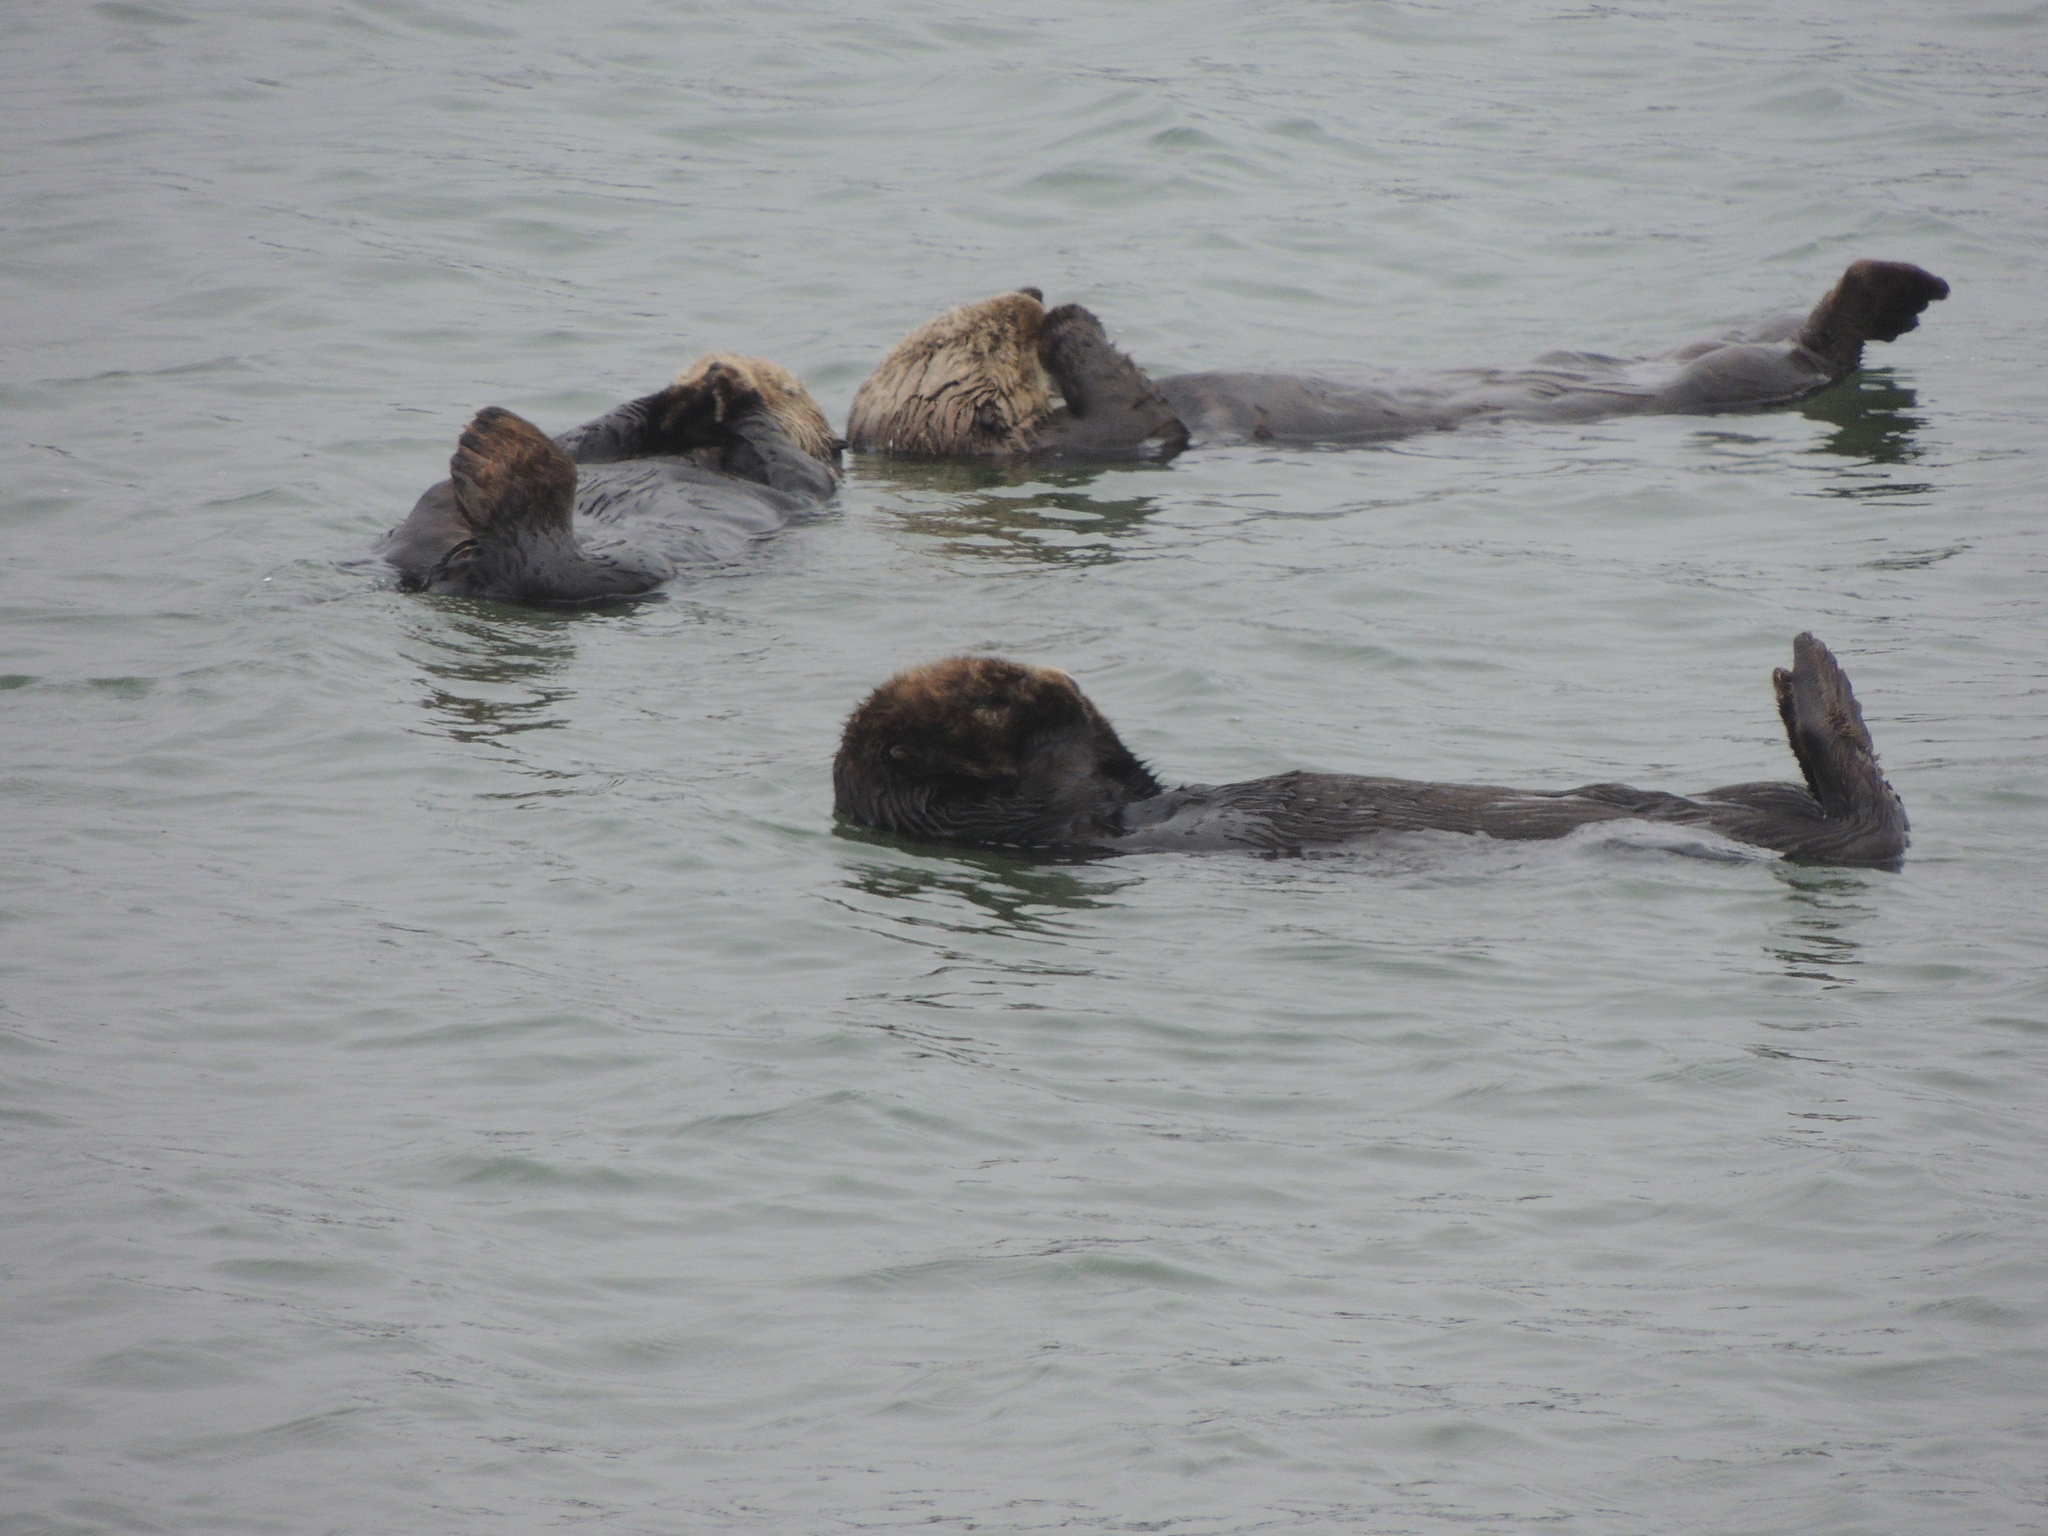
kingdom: Animalia
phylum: Chordata
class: Mammalia
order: Carnivora
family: Mustelidae
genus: Enhydra
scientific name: Enhydra lutris
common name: Sea otter
